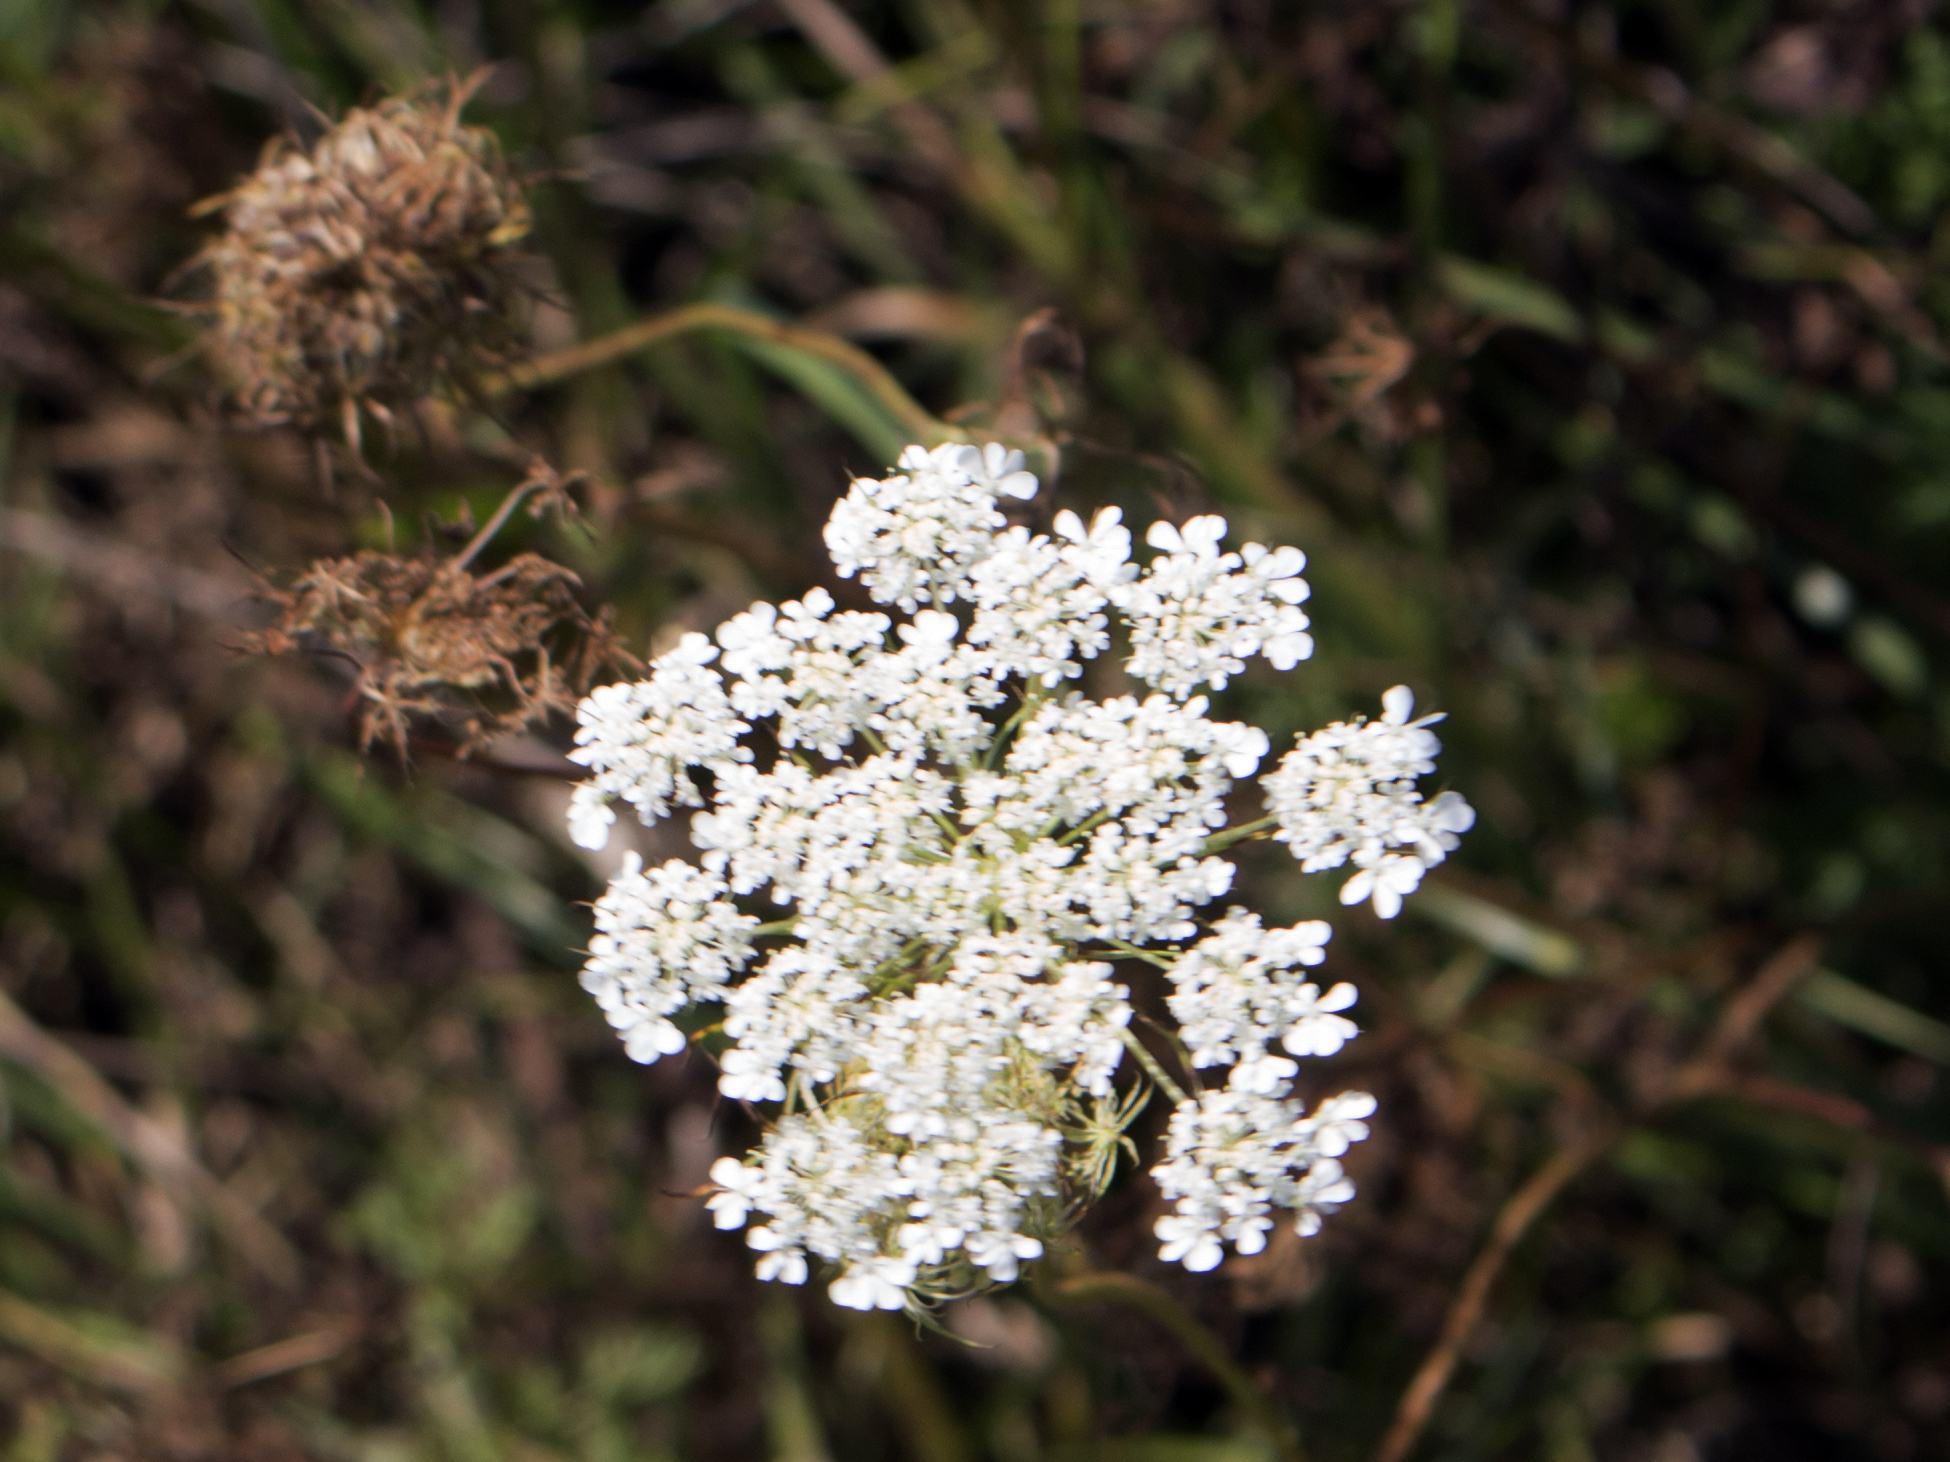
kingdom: Plantae
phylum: Tracheophyta
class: Magnoliopsida
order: Apiales
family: Apiaceae
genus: Daucus
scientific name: Daucus carota
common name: Wild carrot
